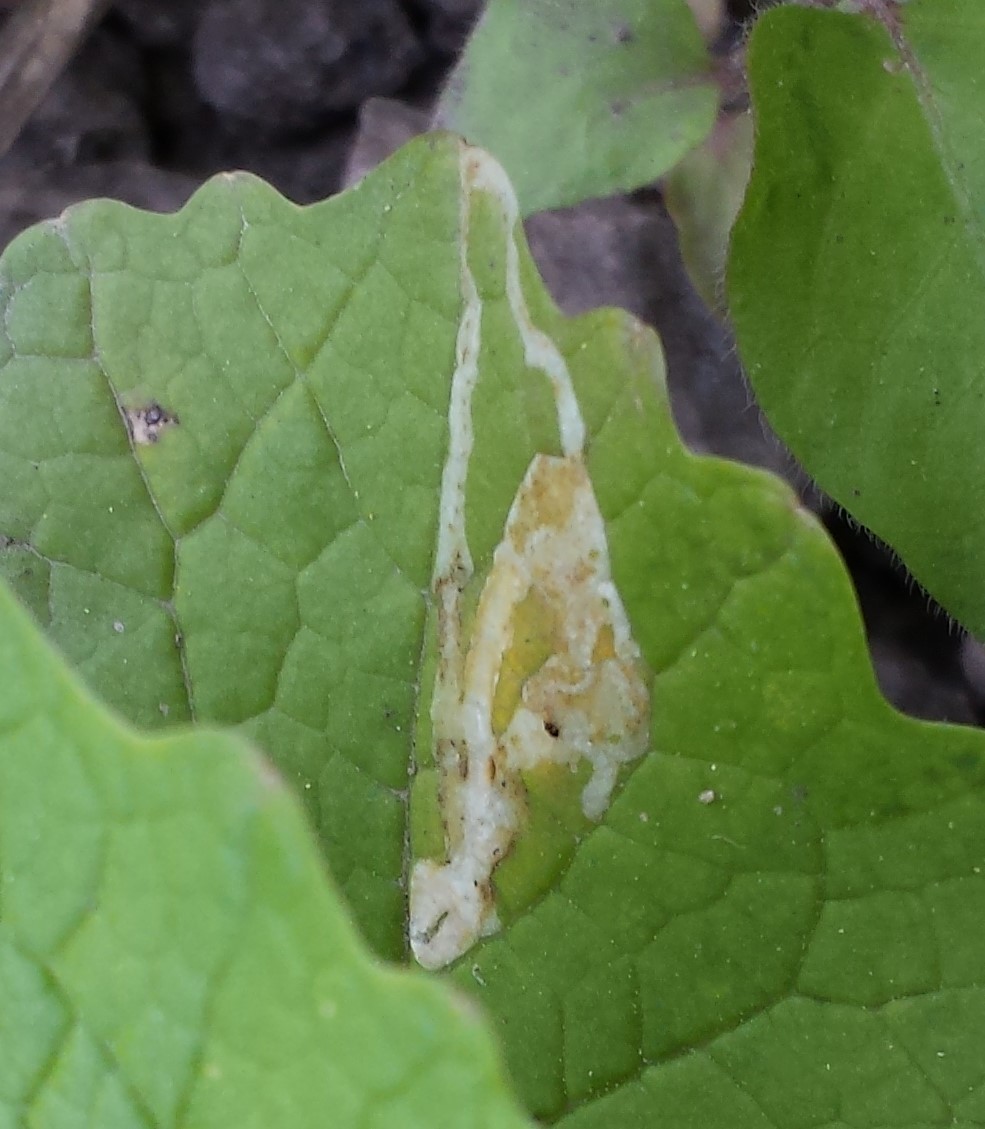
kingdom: Animalia
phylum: Arthropoda
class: Insecta
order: Diptera
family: Agromyzidae
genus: Liriomyza
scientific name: Liriomyza brassicae
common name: Serpentine leaf miner
